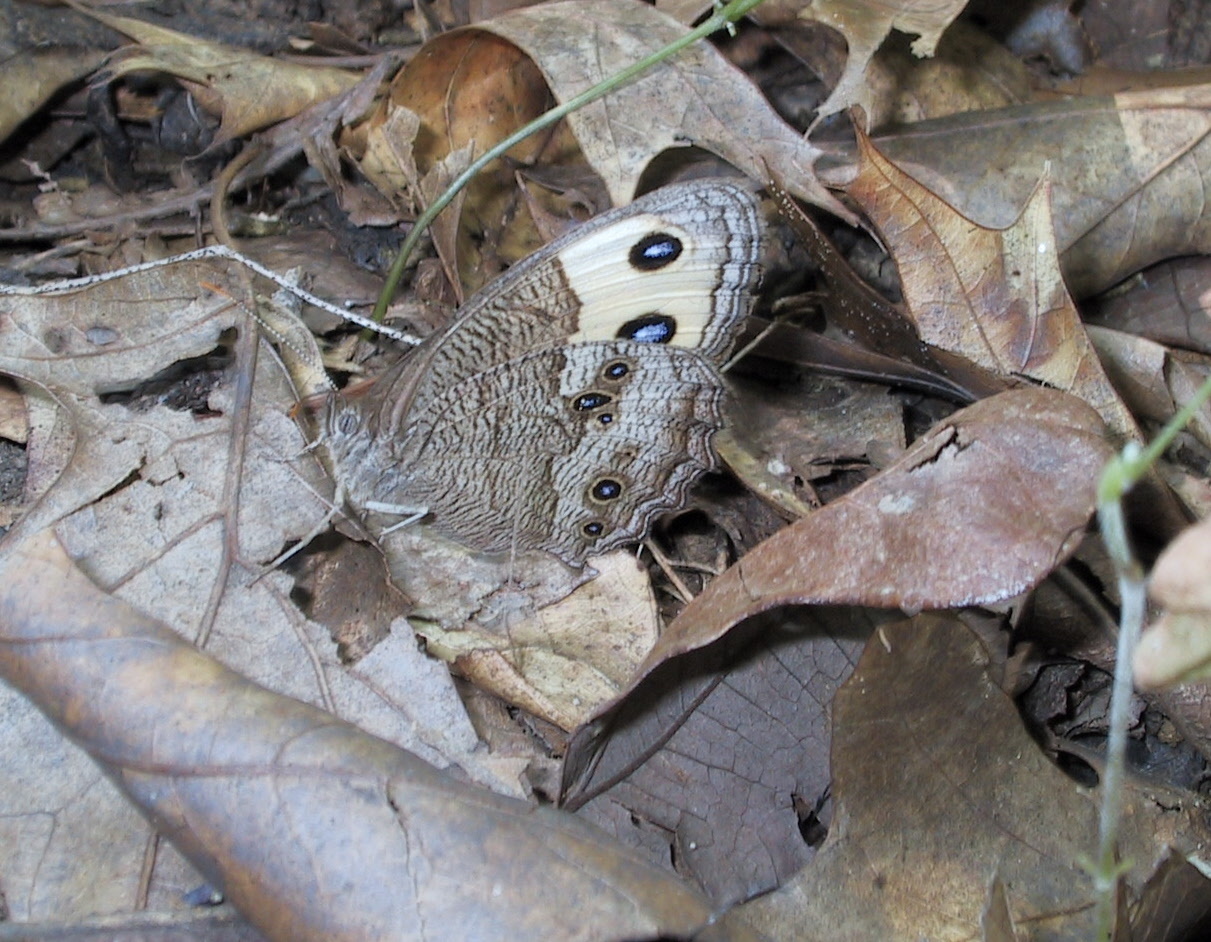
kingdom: Animalia
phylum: Arthropoda
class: Insecta
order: Lepidoptera
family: Nymphalidae
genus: Cercyonis
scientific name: Cercyonis pegala
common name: Common wood-nymph
